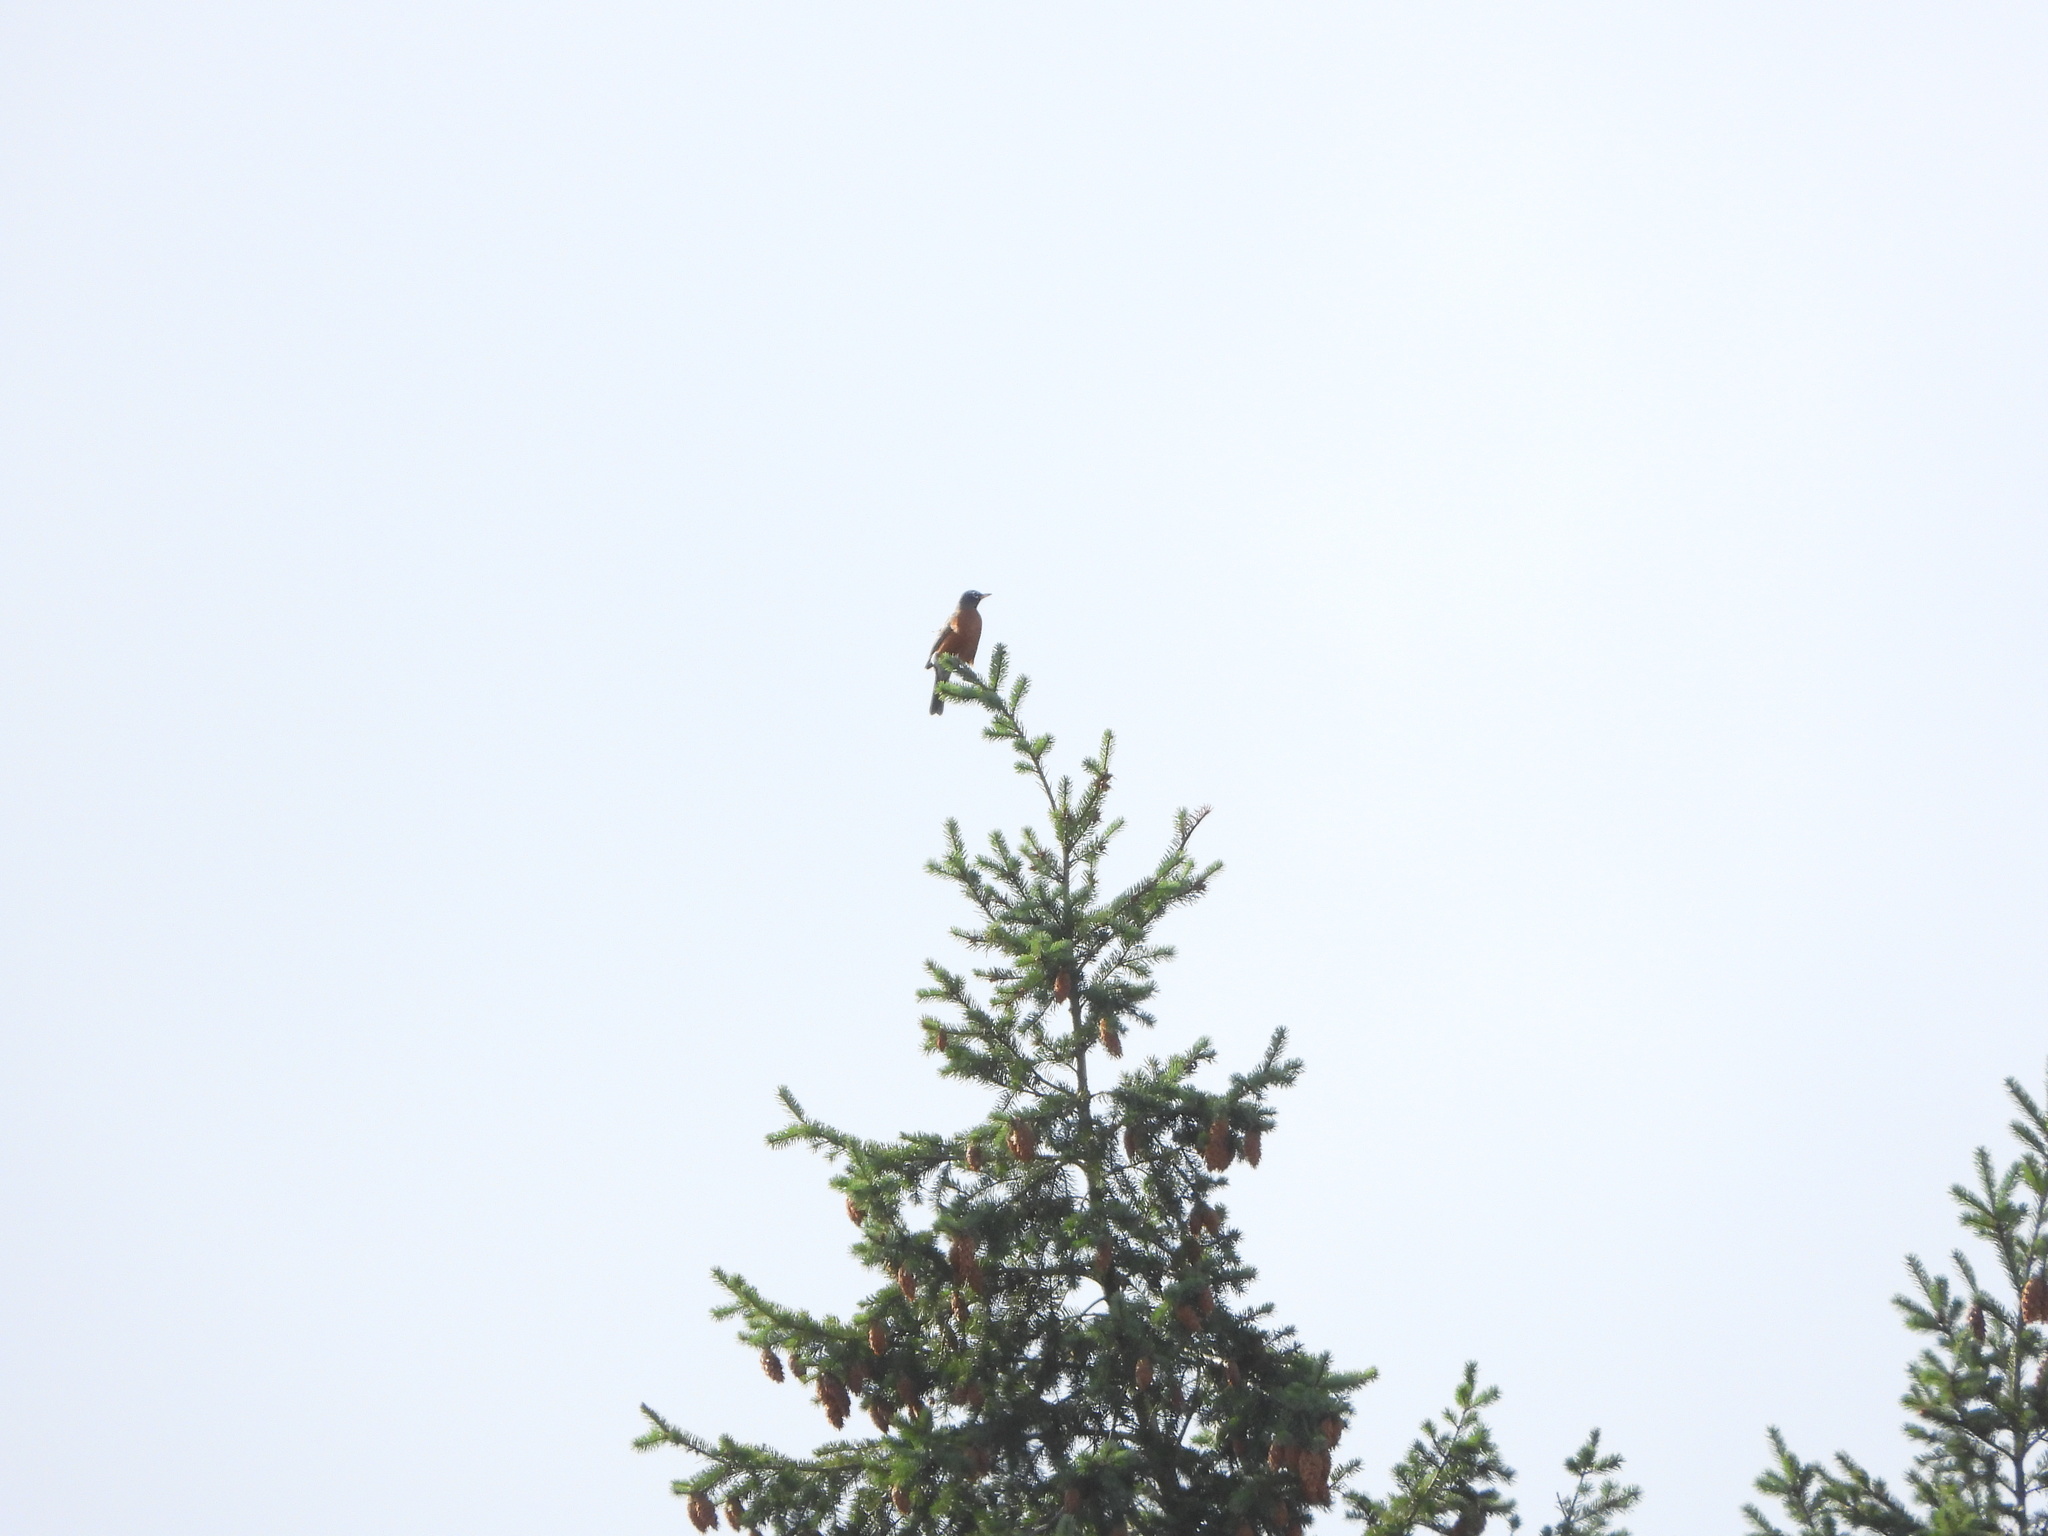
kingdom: Animalia
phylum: Chordata
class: Aves
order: Passeriformes
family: Turdidae
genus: Turdus
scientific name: Turdus migratorius
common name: American robin
